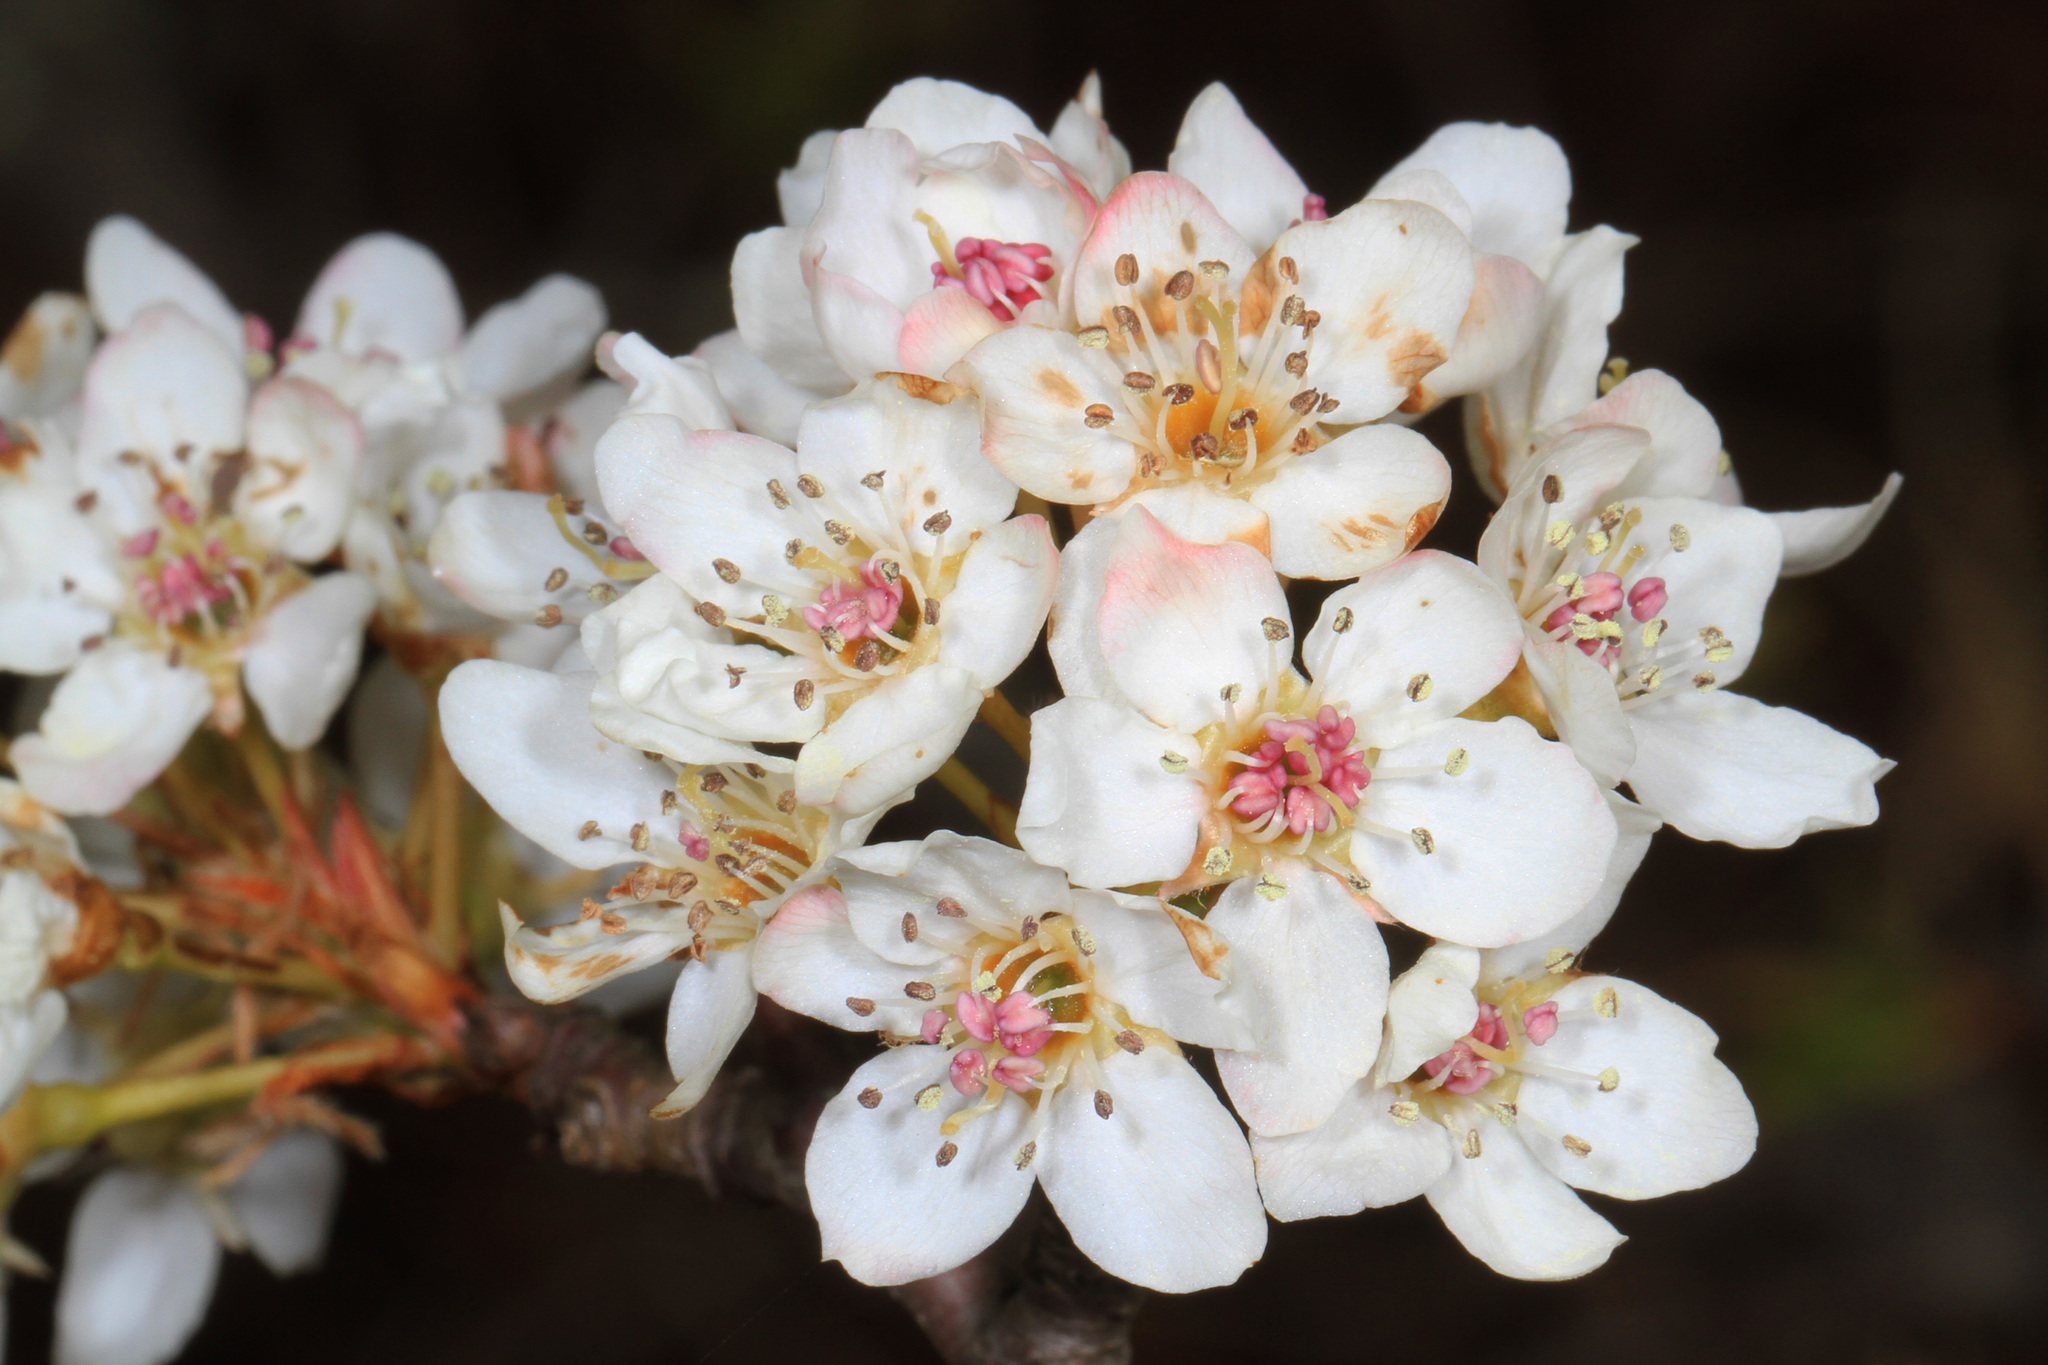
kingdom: Plantae
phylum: Tracheophyta
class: Magnoliopsida
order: Rosales
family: Rosaceae
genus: Pyrus
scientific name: Pyrus calleryana
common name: Callery pear
